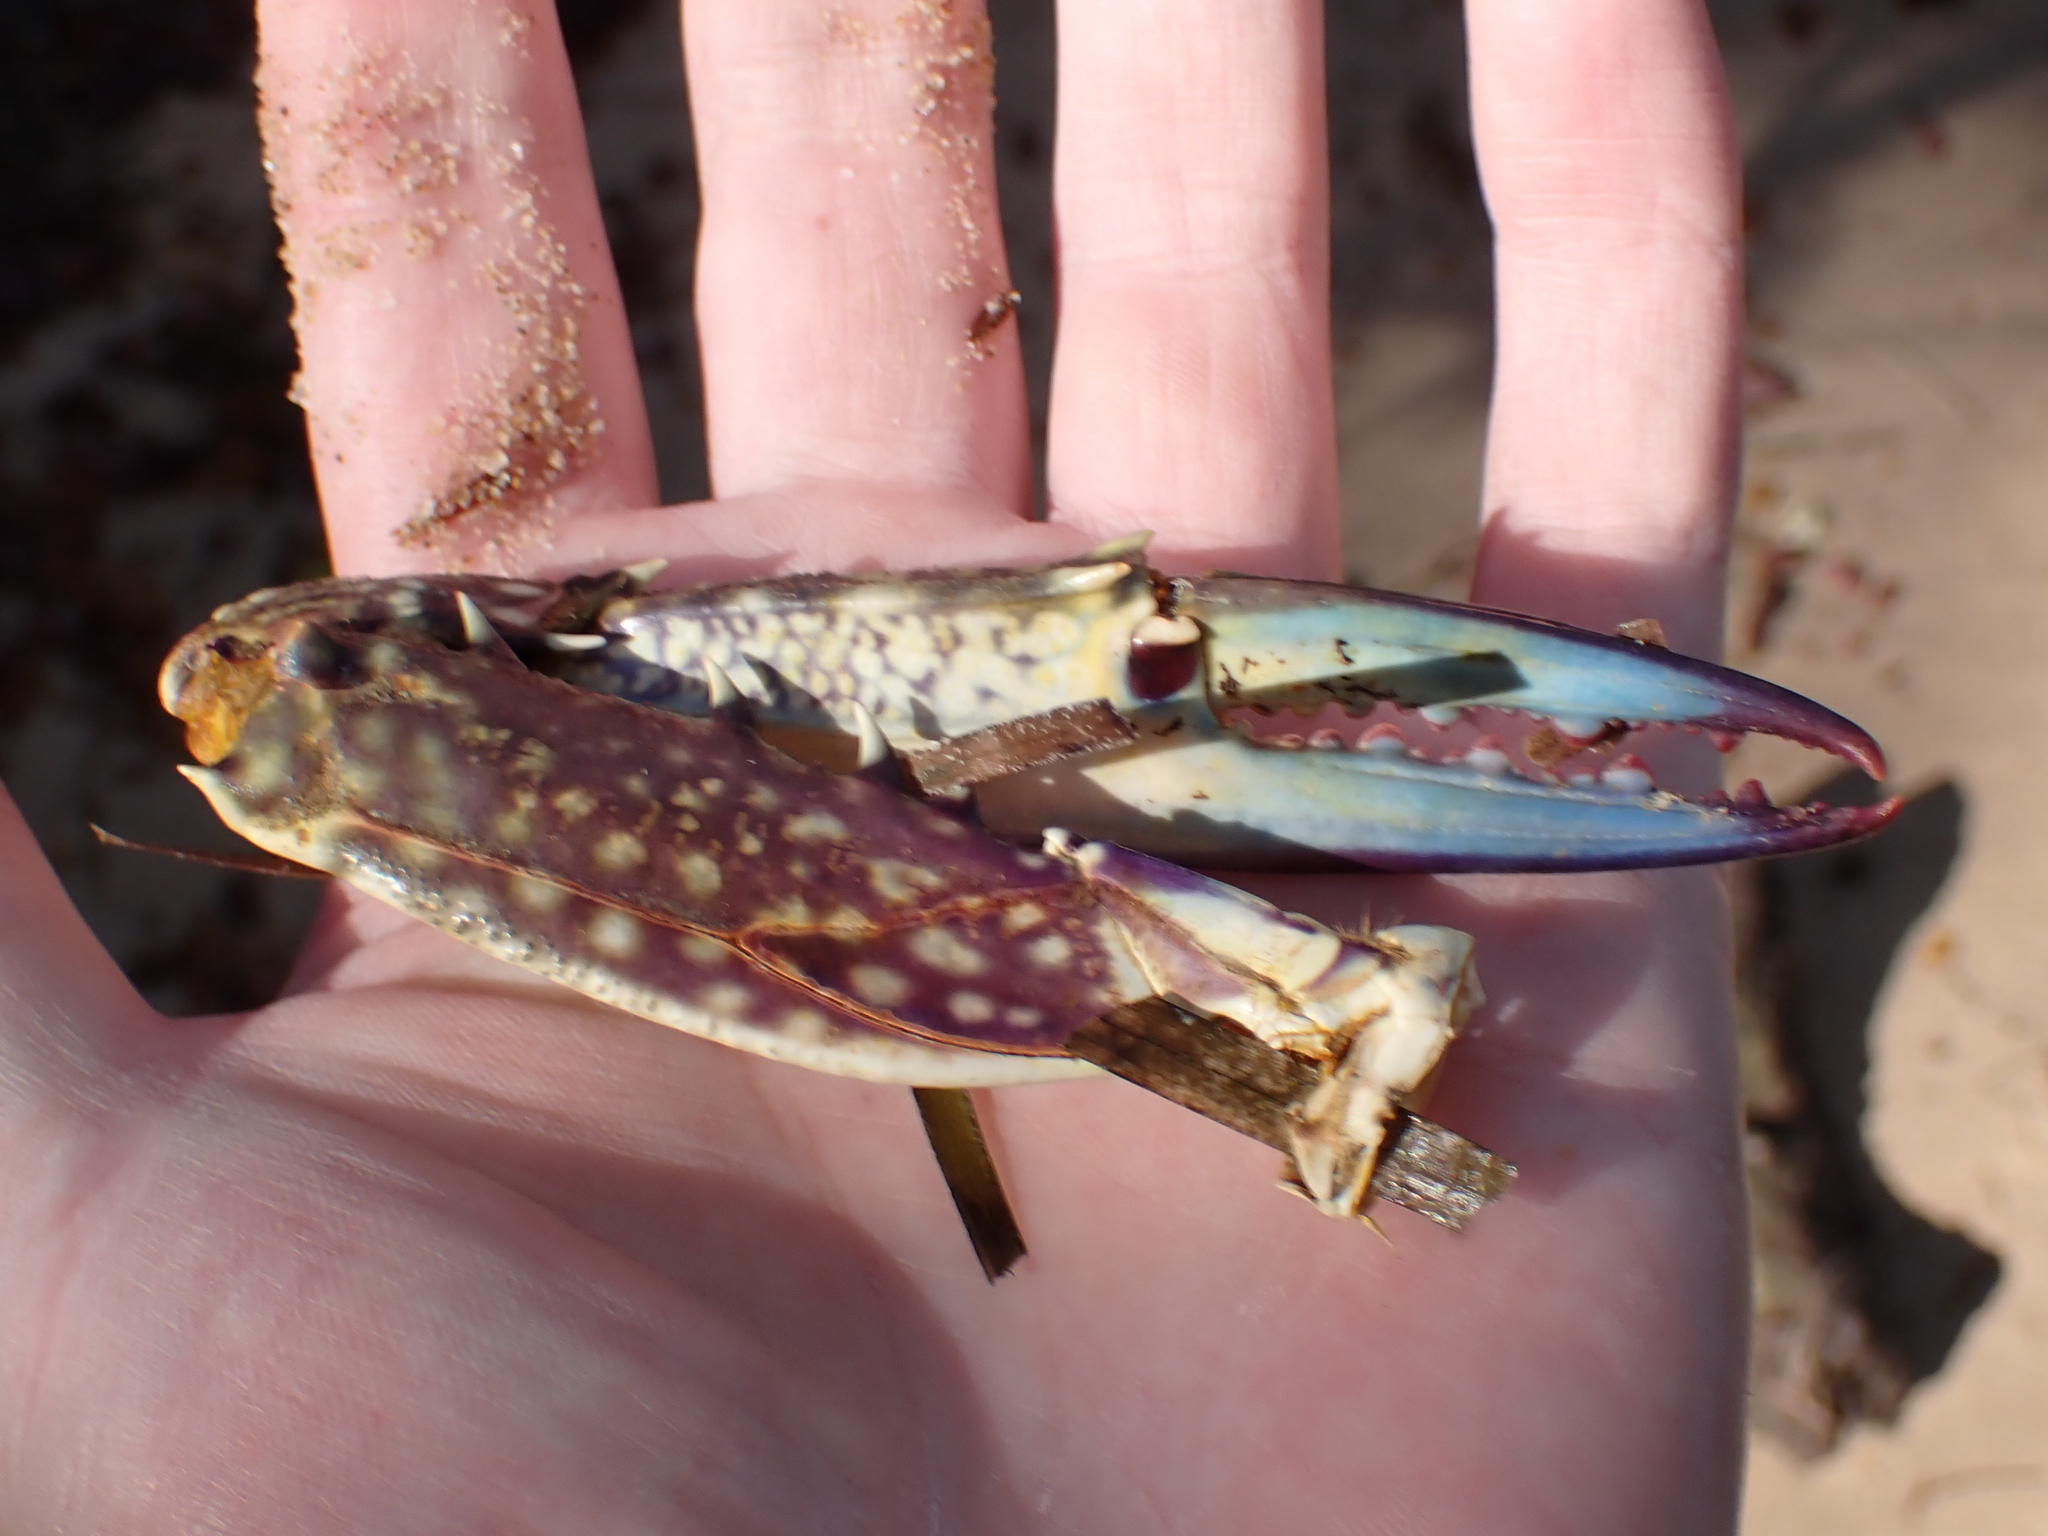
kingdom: Animalia
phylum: Arthropoda
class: Malacostraca
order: Decapoda
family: Portunidae
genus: Portunus
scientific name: Portunus armatus
